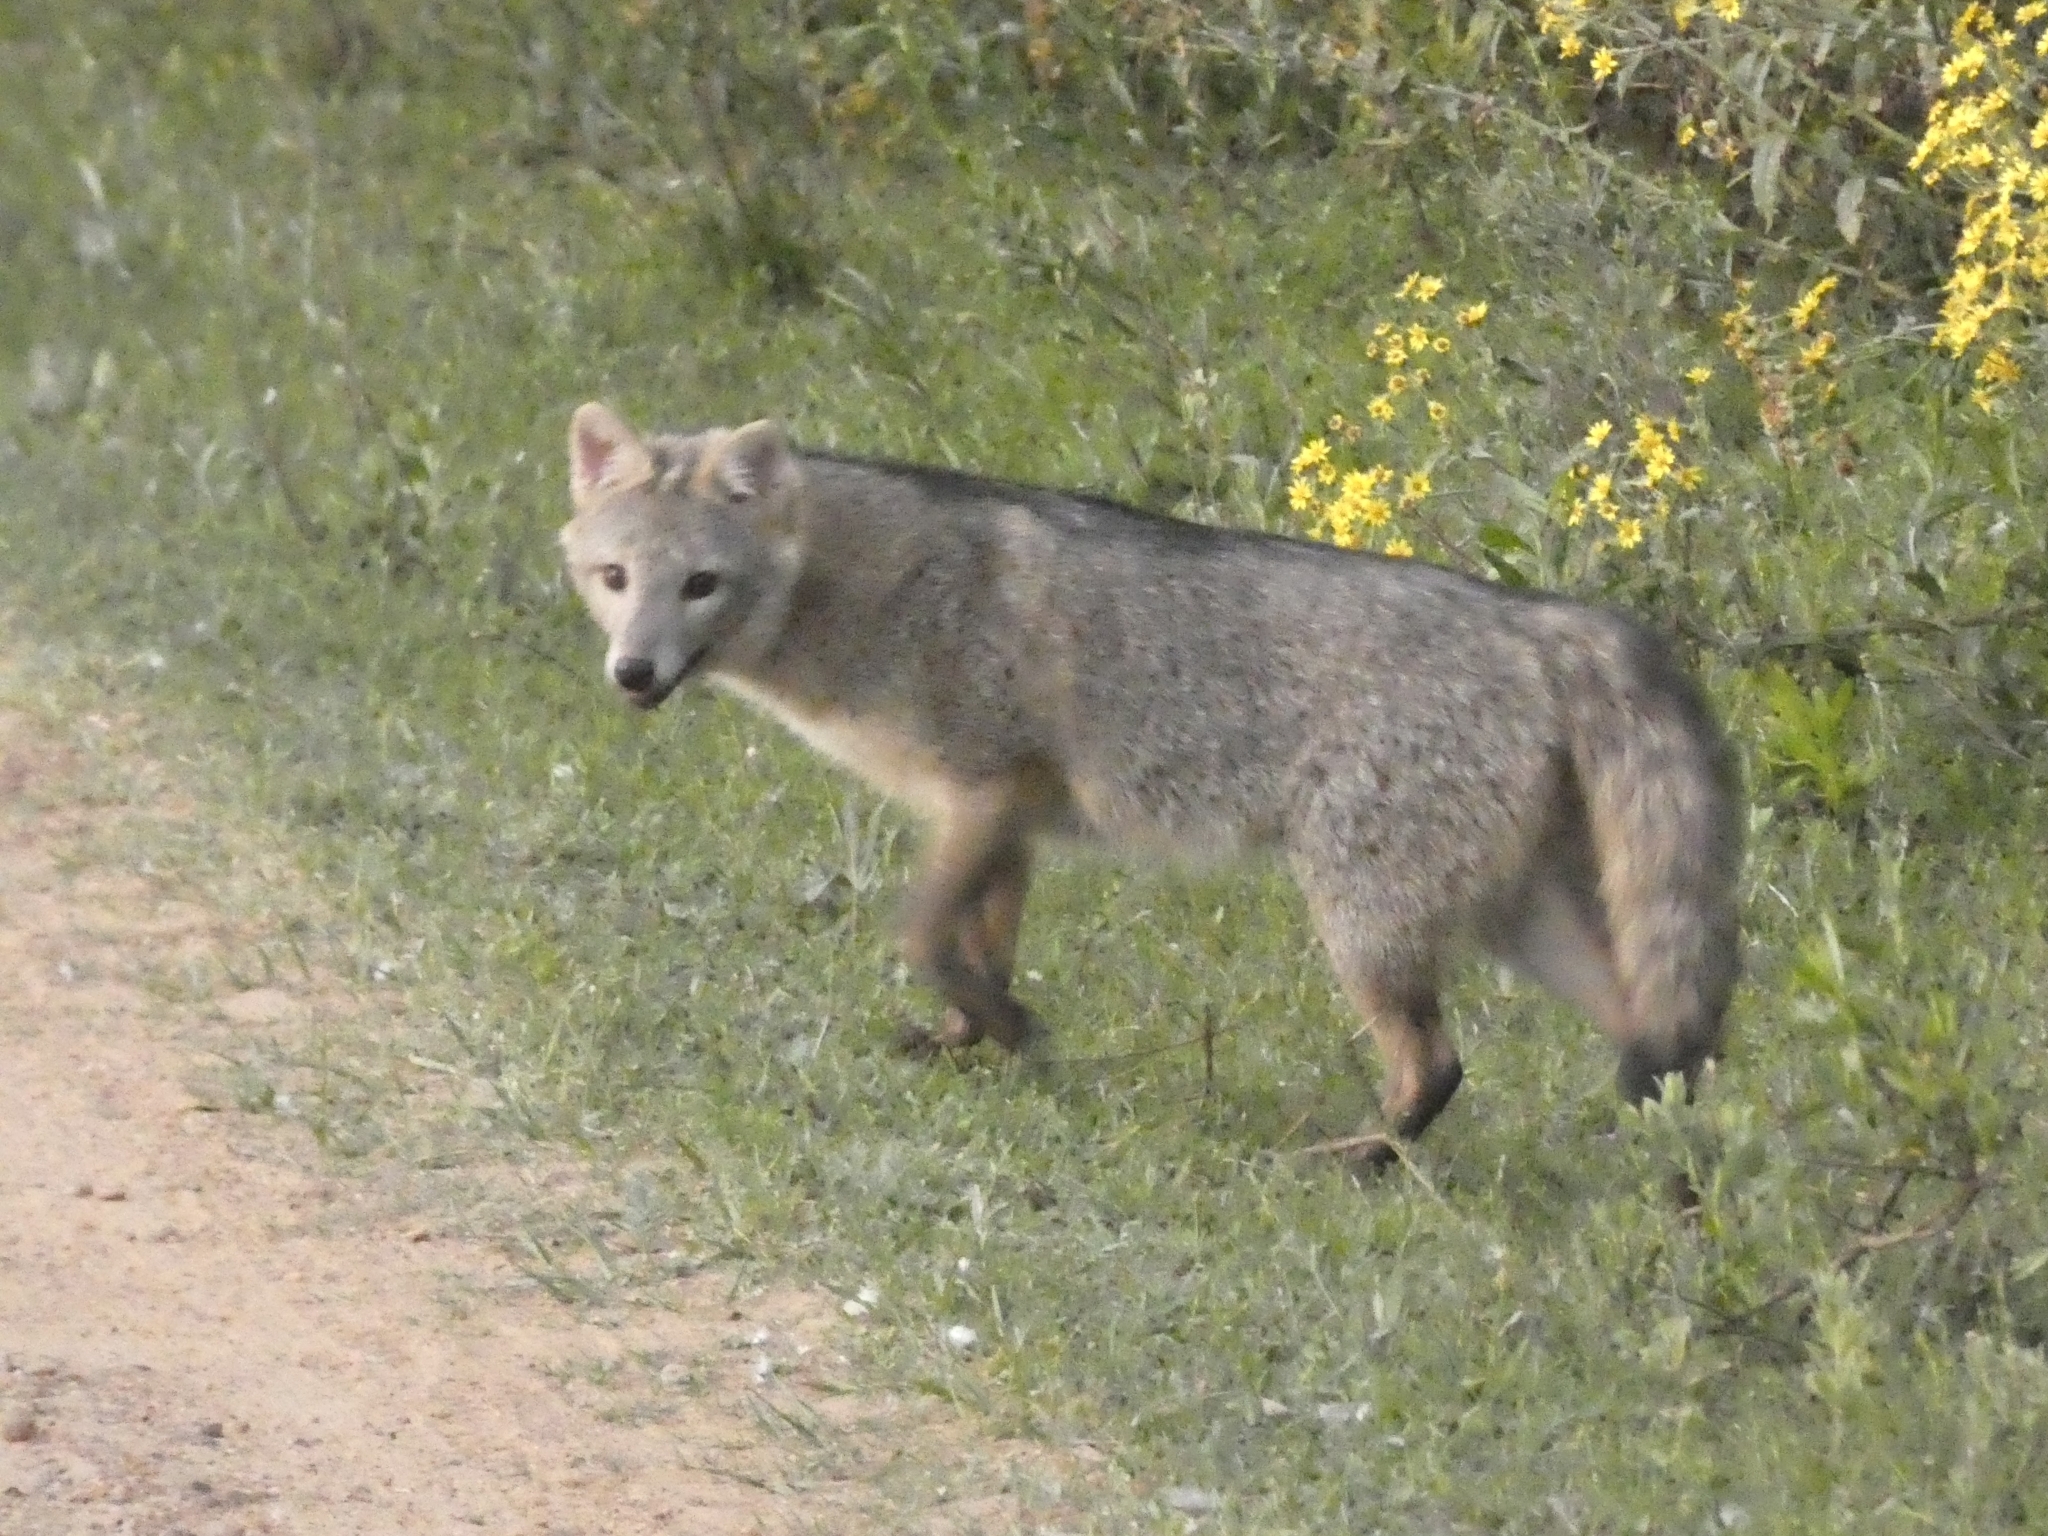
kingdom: Animalia
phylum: Chordata
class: Mammalia
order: Carnivora
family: Canidae
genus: Cerdocyon
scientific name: Cerdocyon thous
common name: Crab-eating fox
